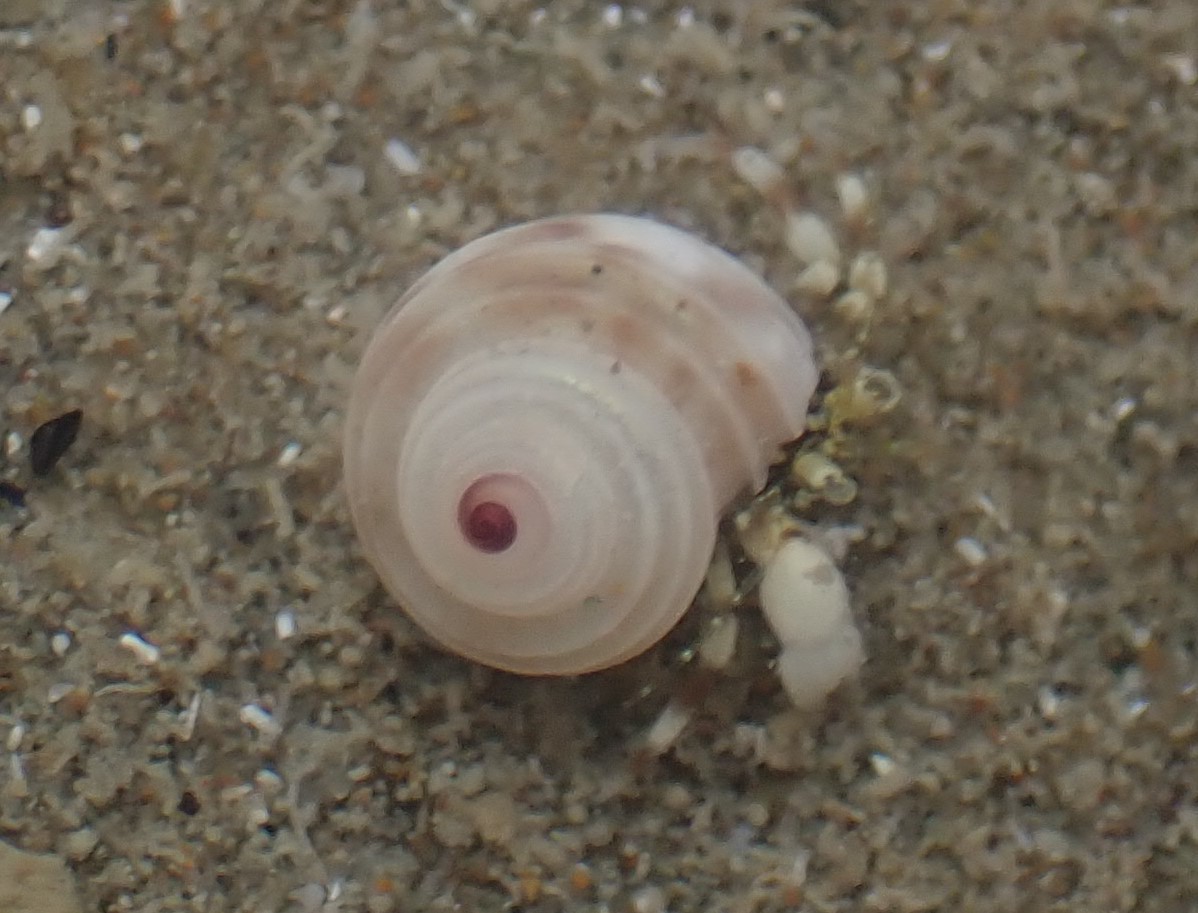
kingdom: Animalia
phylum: Mollusca
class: Gastropoda
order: Trochida
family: Trochidae
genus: Antisolarium
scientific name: Antisolarium egenum
